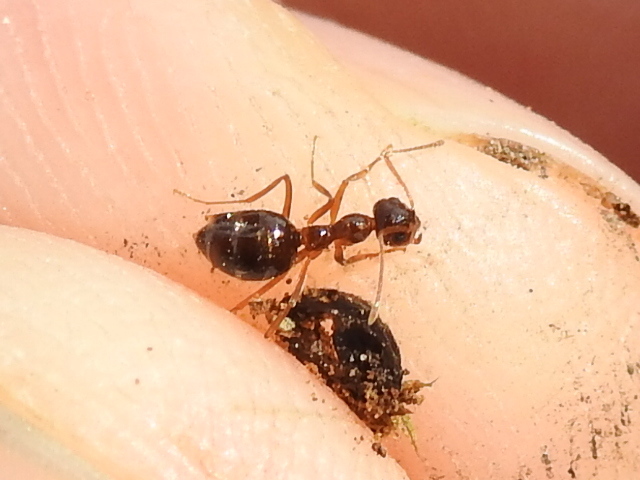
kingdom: Animalia
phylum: Arthropoda
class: Insecta
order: Hymenoptera
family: Formicidae
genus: Prenolepis
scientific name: Prenolepis imparis
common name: Small honey ant
